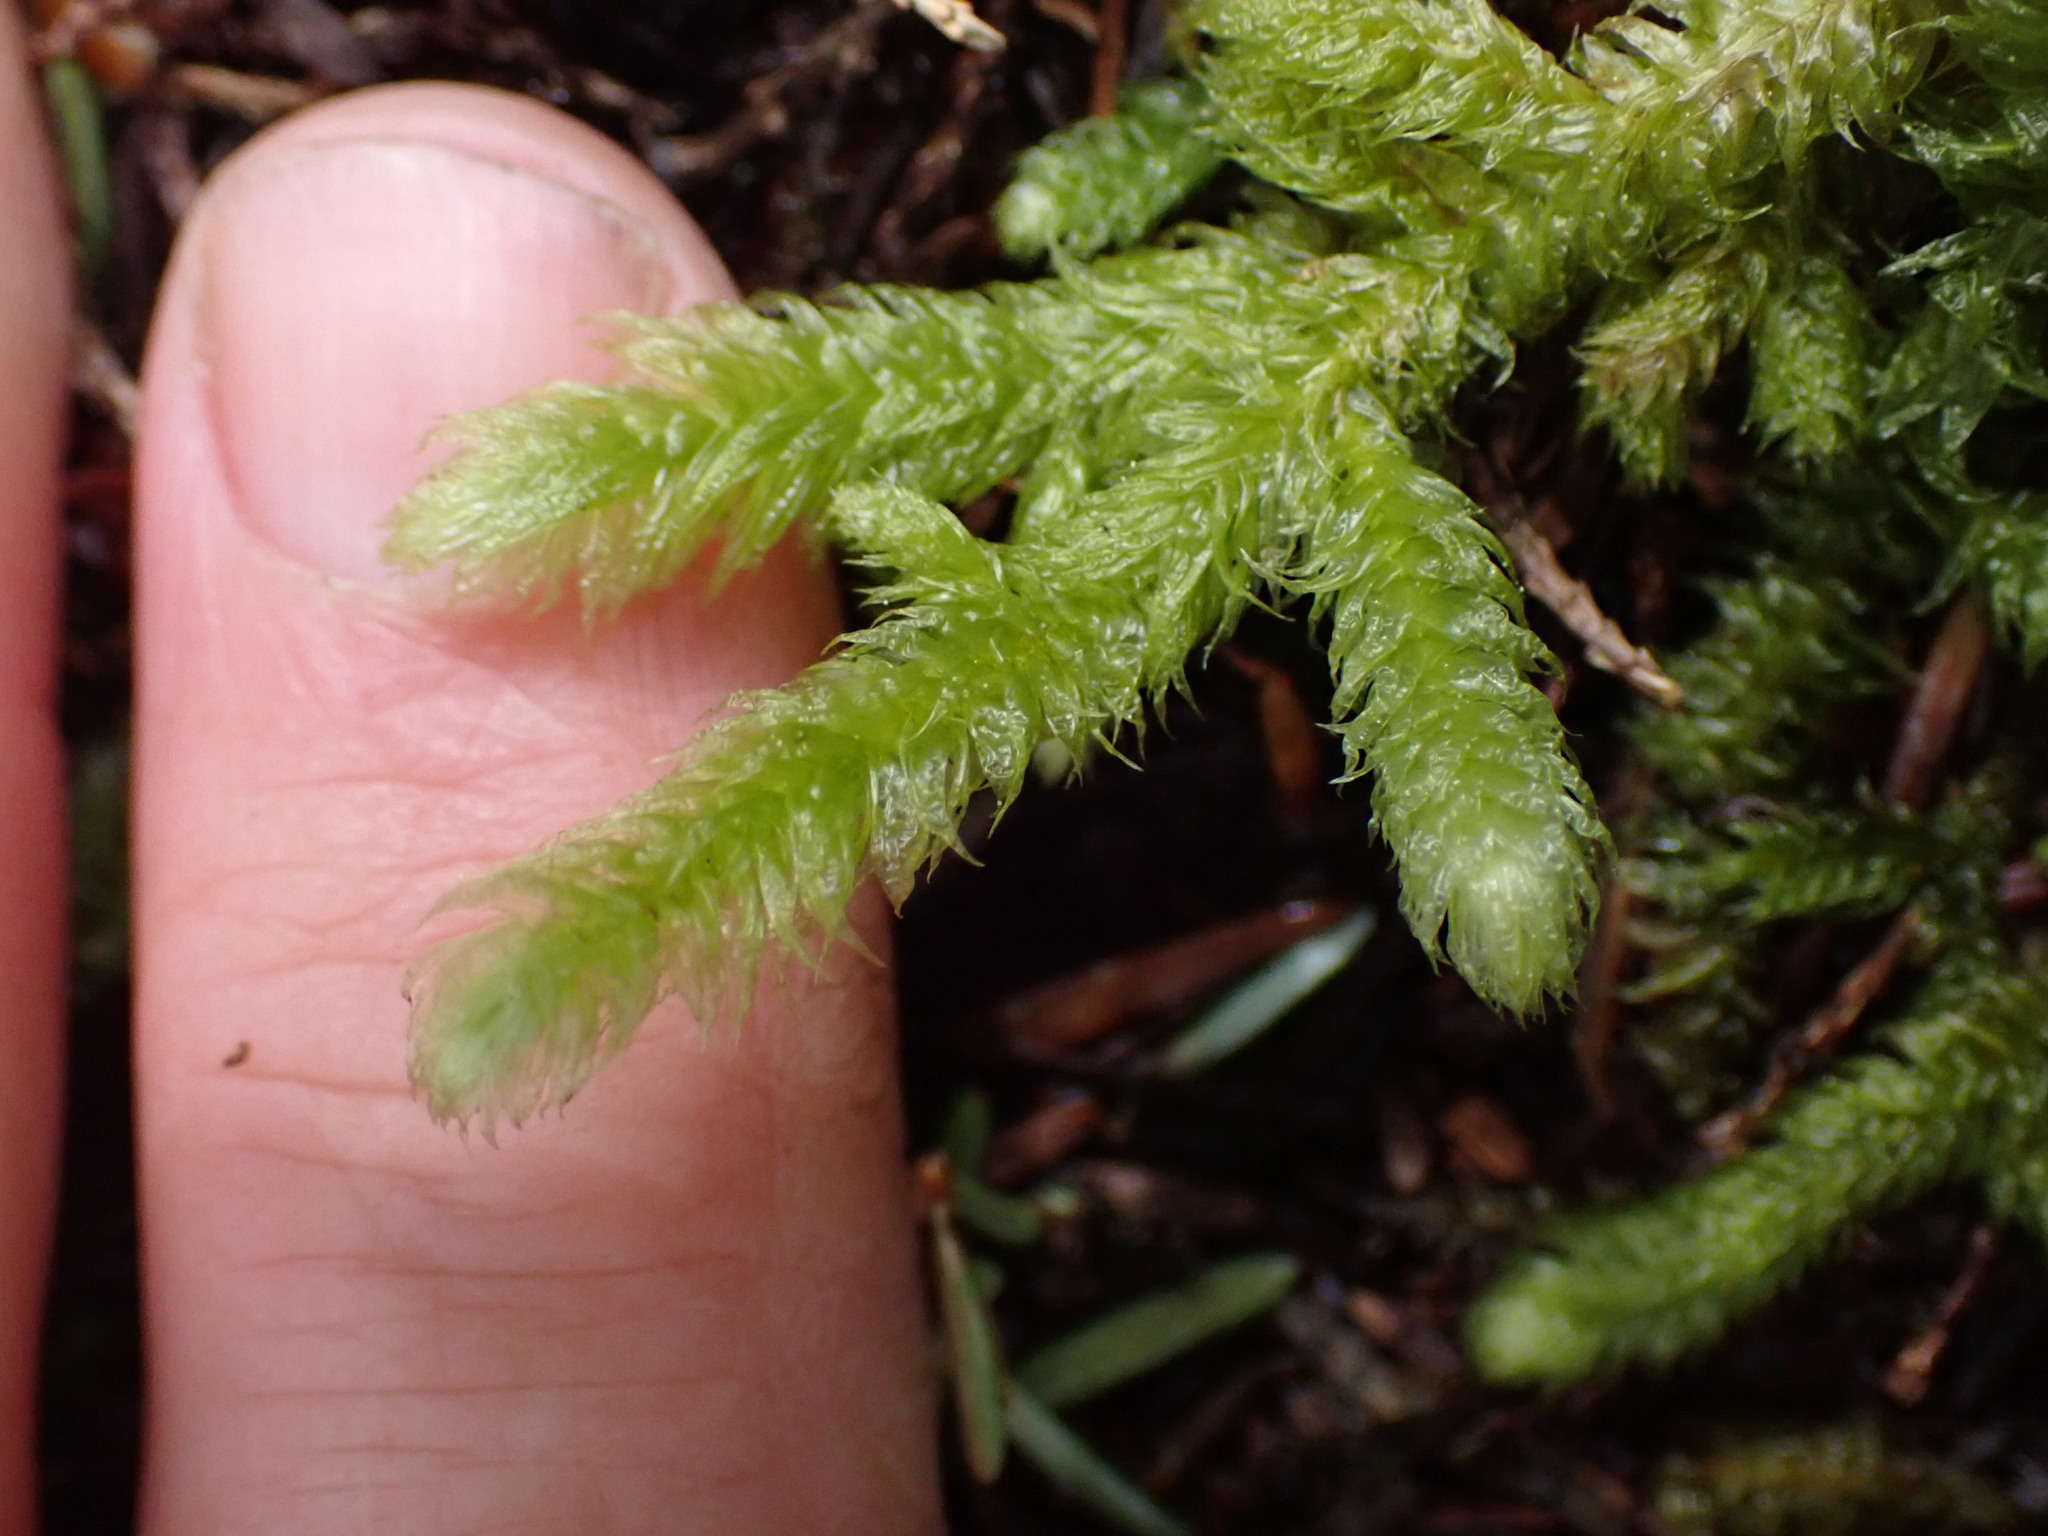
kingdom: Plantae
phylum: Bryophyta
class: Bryopsida
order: Hypnales
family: Hylocomiaceae
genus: Rhytidiopsis
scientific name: Rhytidiopsis robusta
